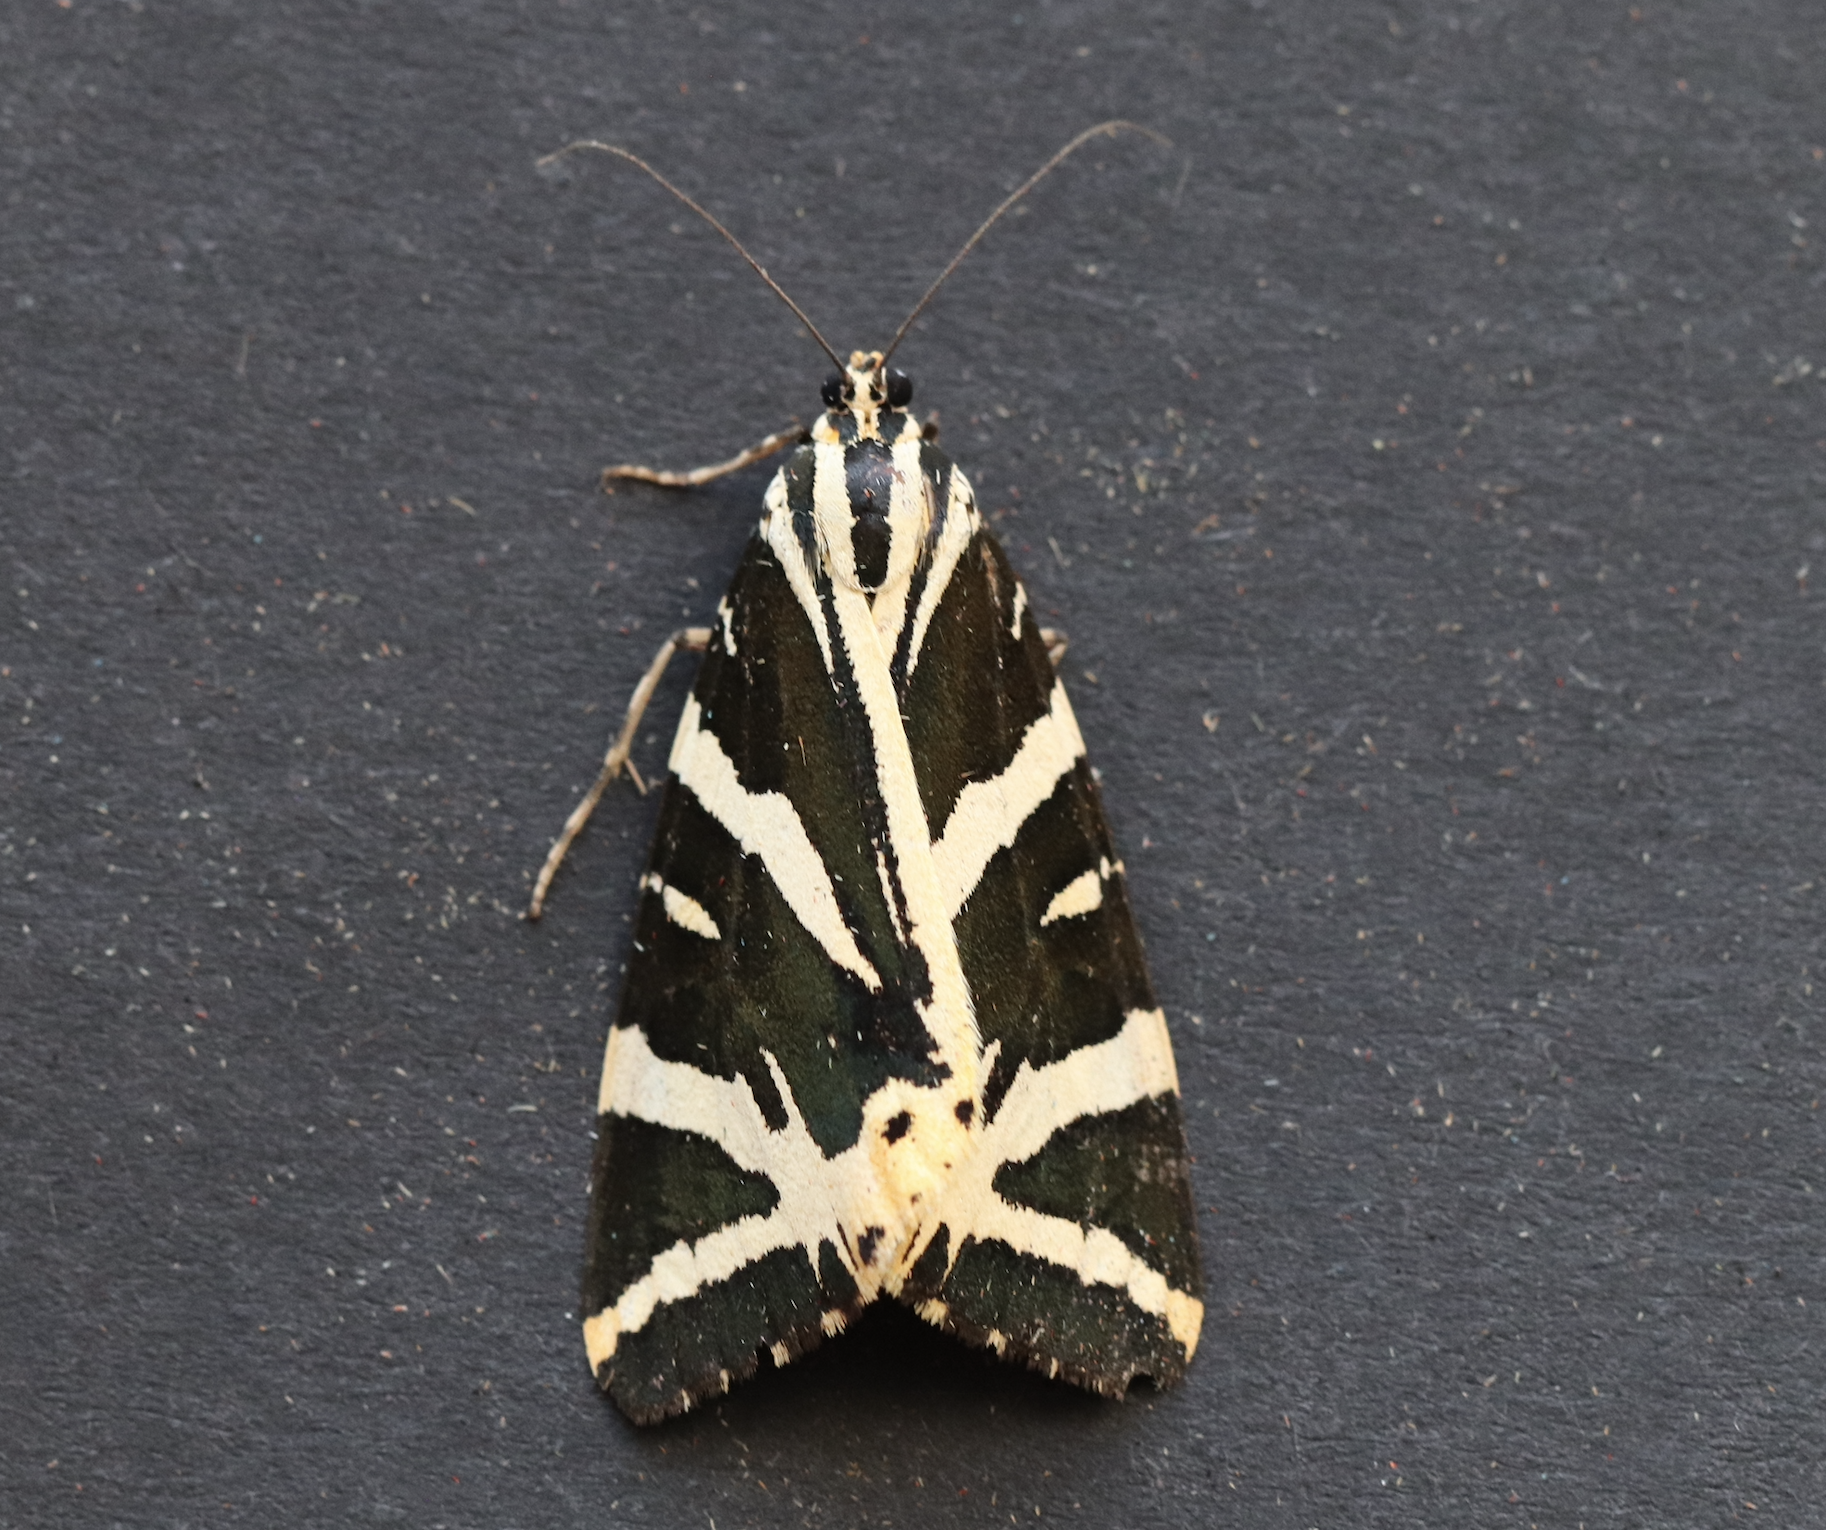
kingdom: Animalia
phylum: Arthropoda
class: Insecta
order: Lepidoptera
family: Erebidae
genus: Euplagia
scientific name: Euplagia quadripunctaria
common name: Jersey tiger
